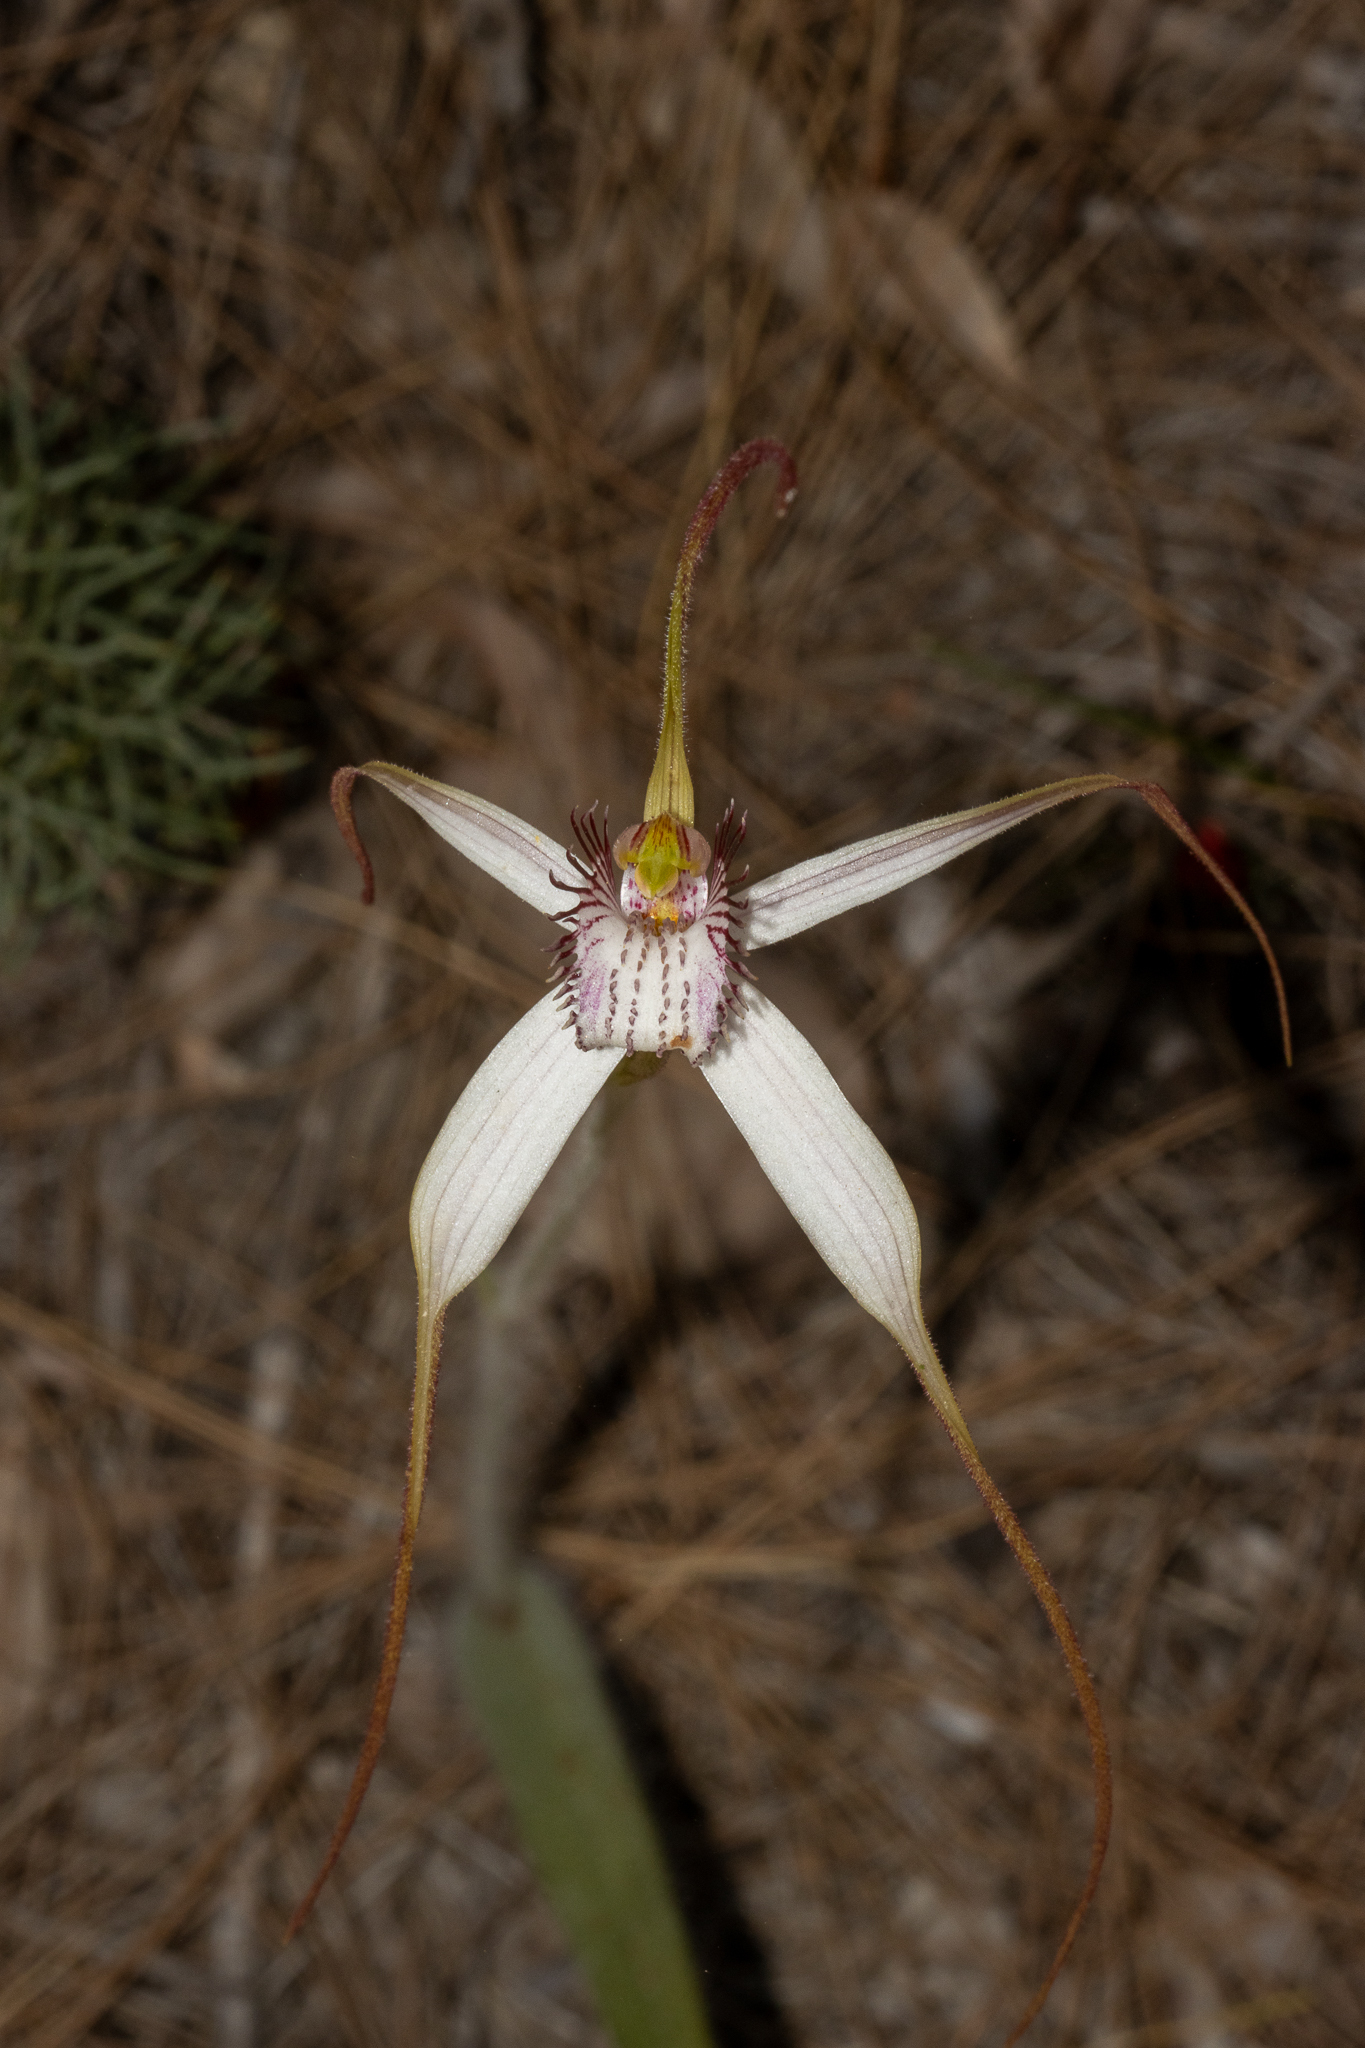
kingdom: Plantae
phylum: Tracheophyta
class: Liliopsida
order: Asparagales
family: Orchidaceae
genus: Caladenia
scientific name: Caladenia longicauda
